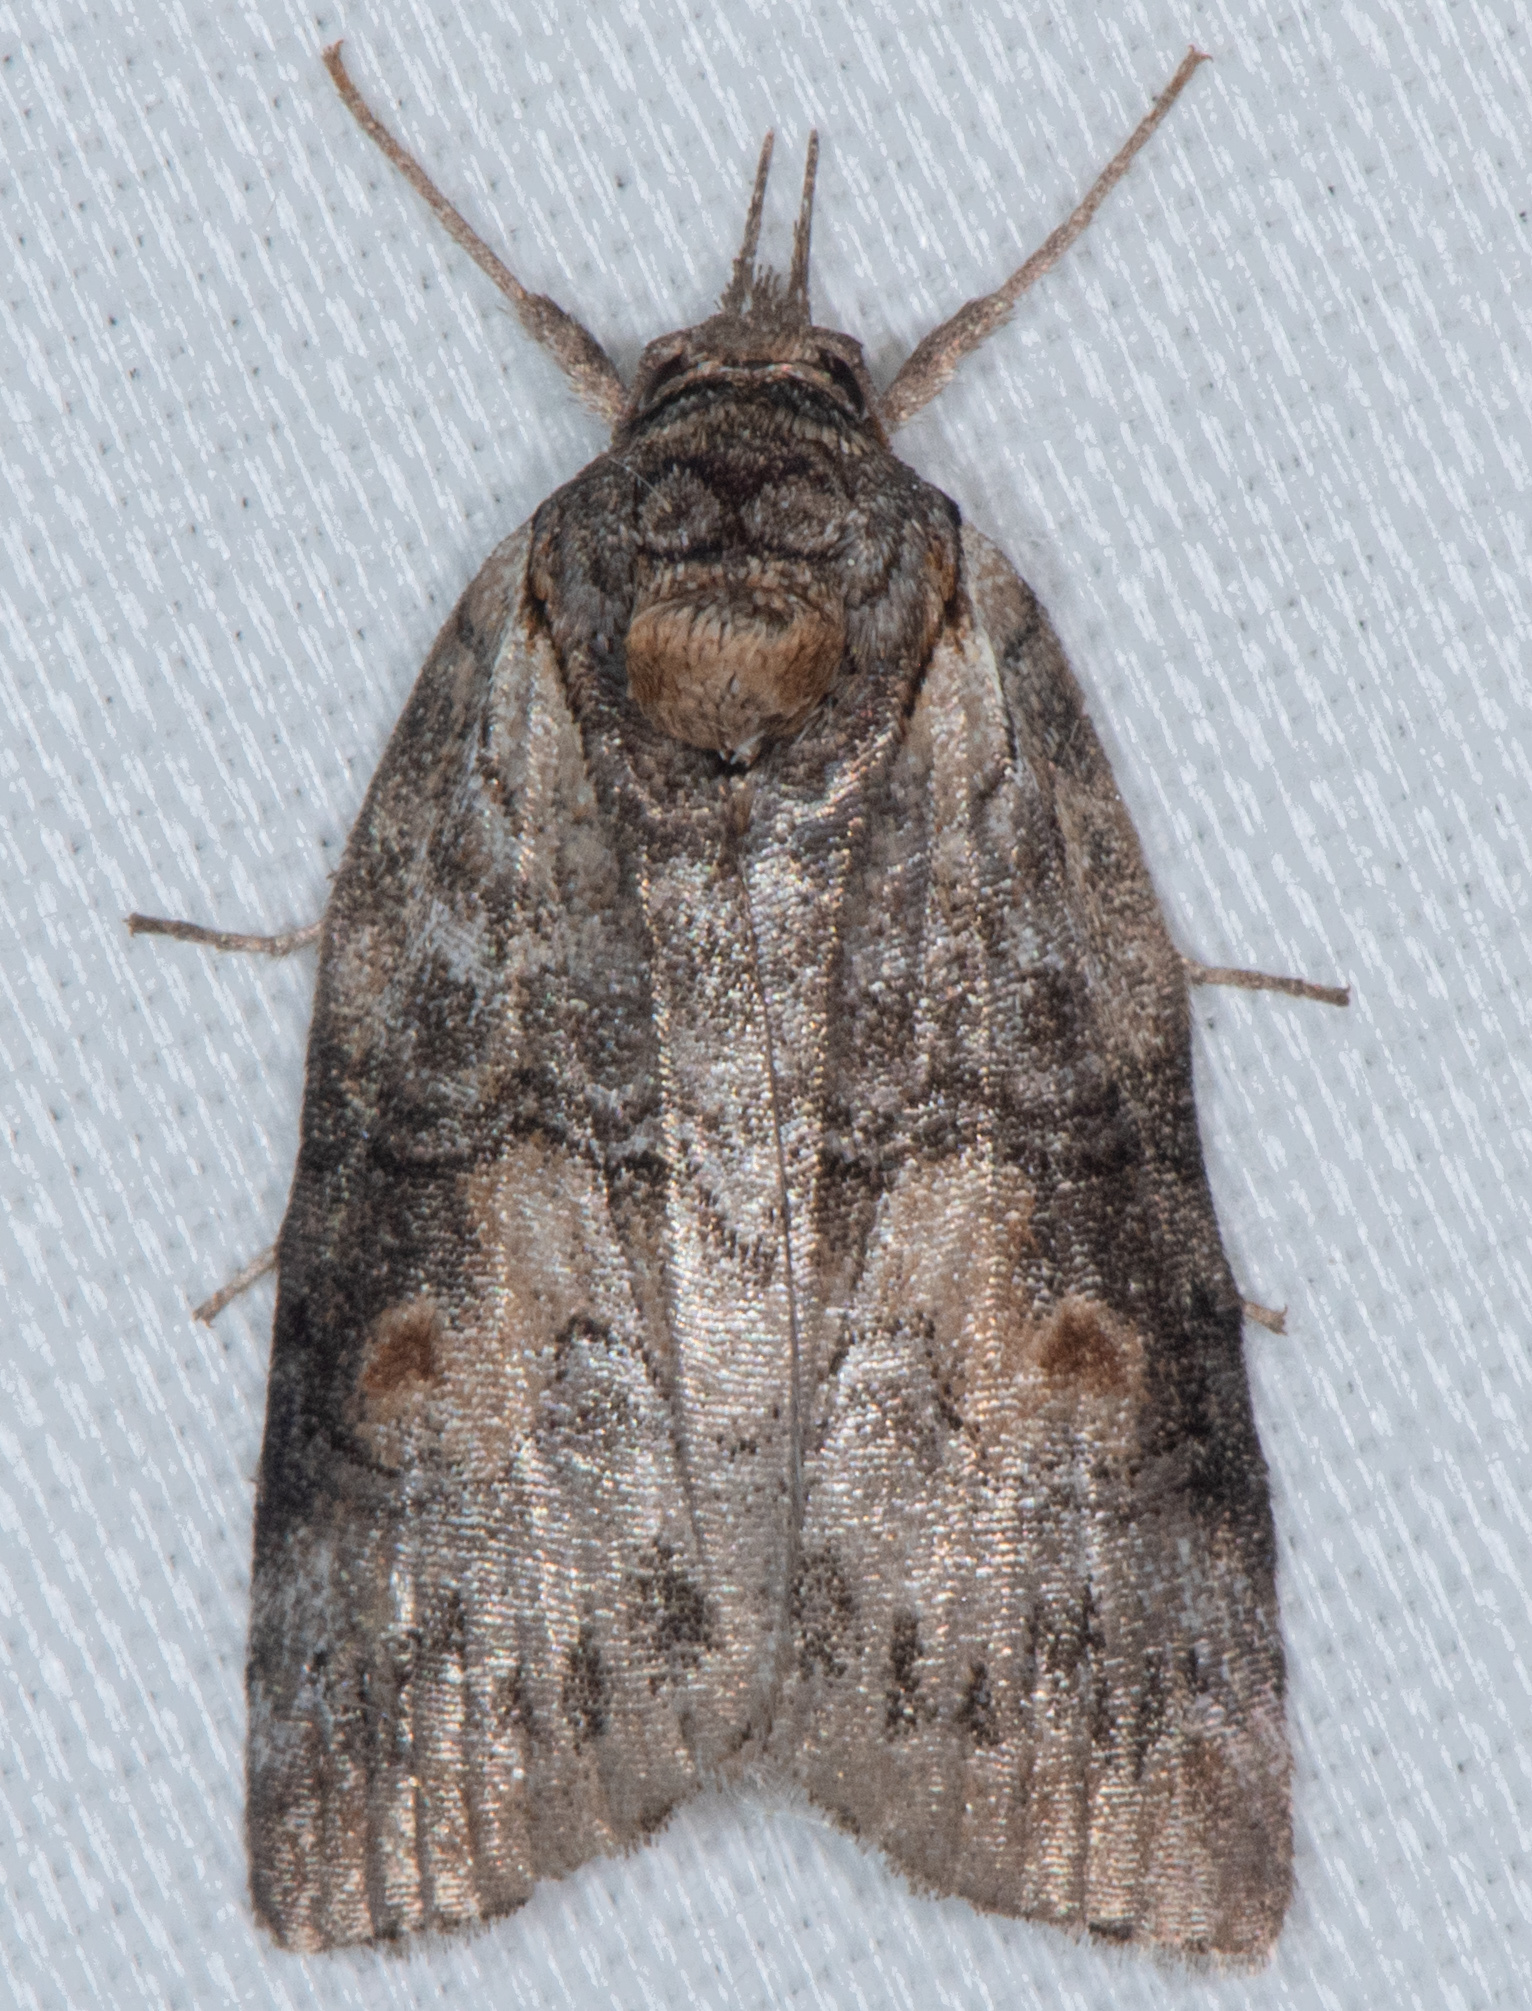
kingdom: Animalia
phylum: Arthropoda
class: Insecta
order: Lepidoptera
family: Nolidae
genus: Nycteola
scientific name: Nycteola cinereana
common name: Grey midget moth
